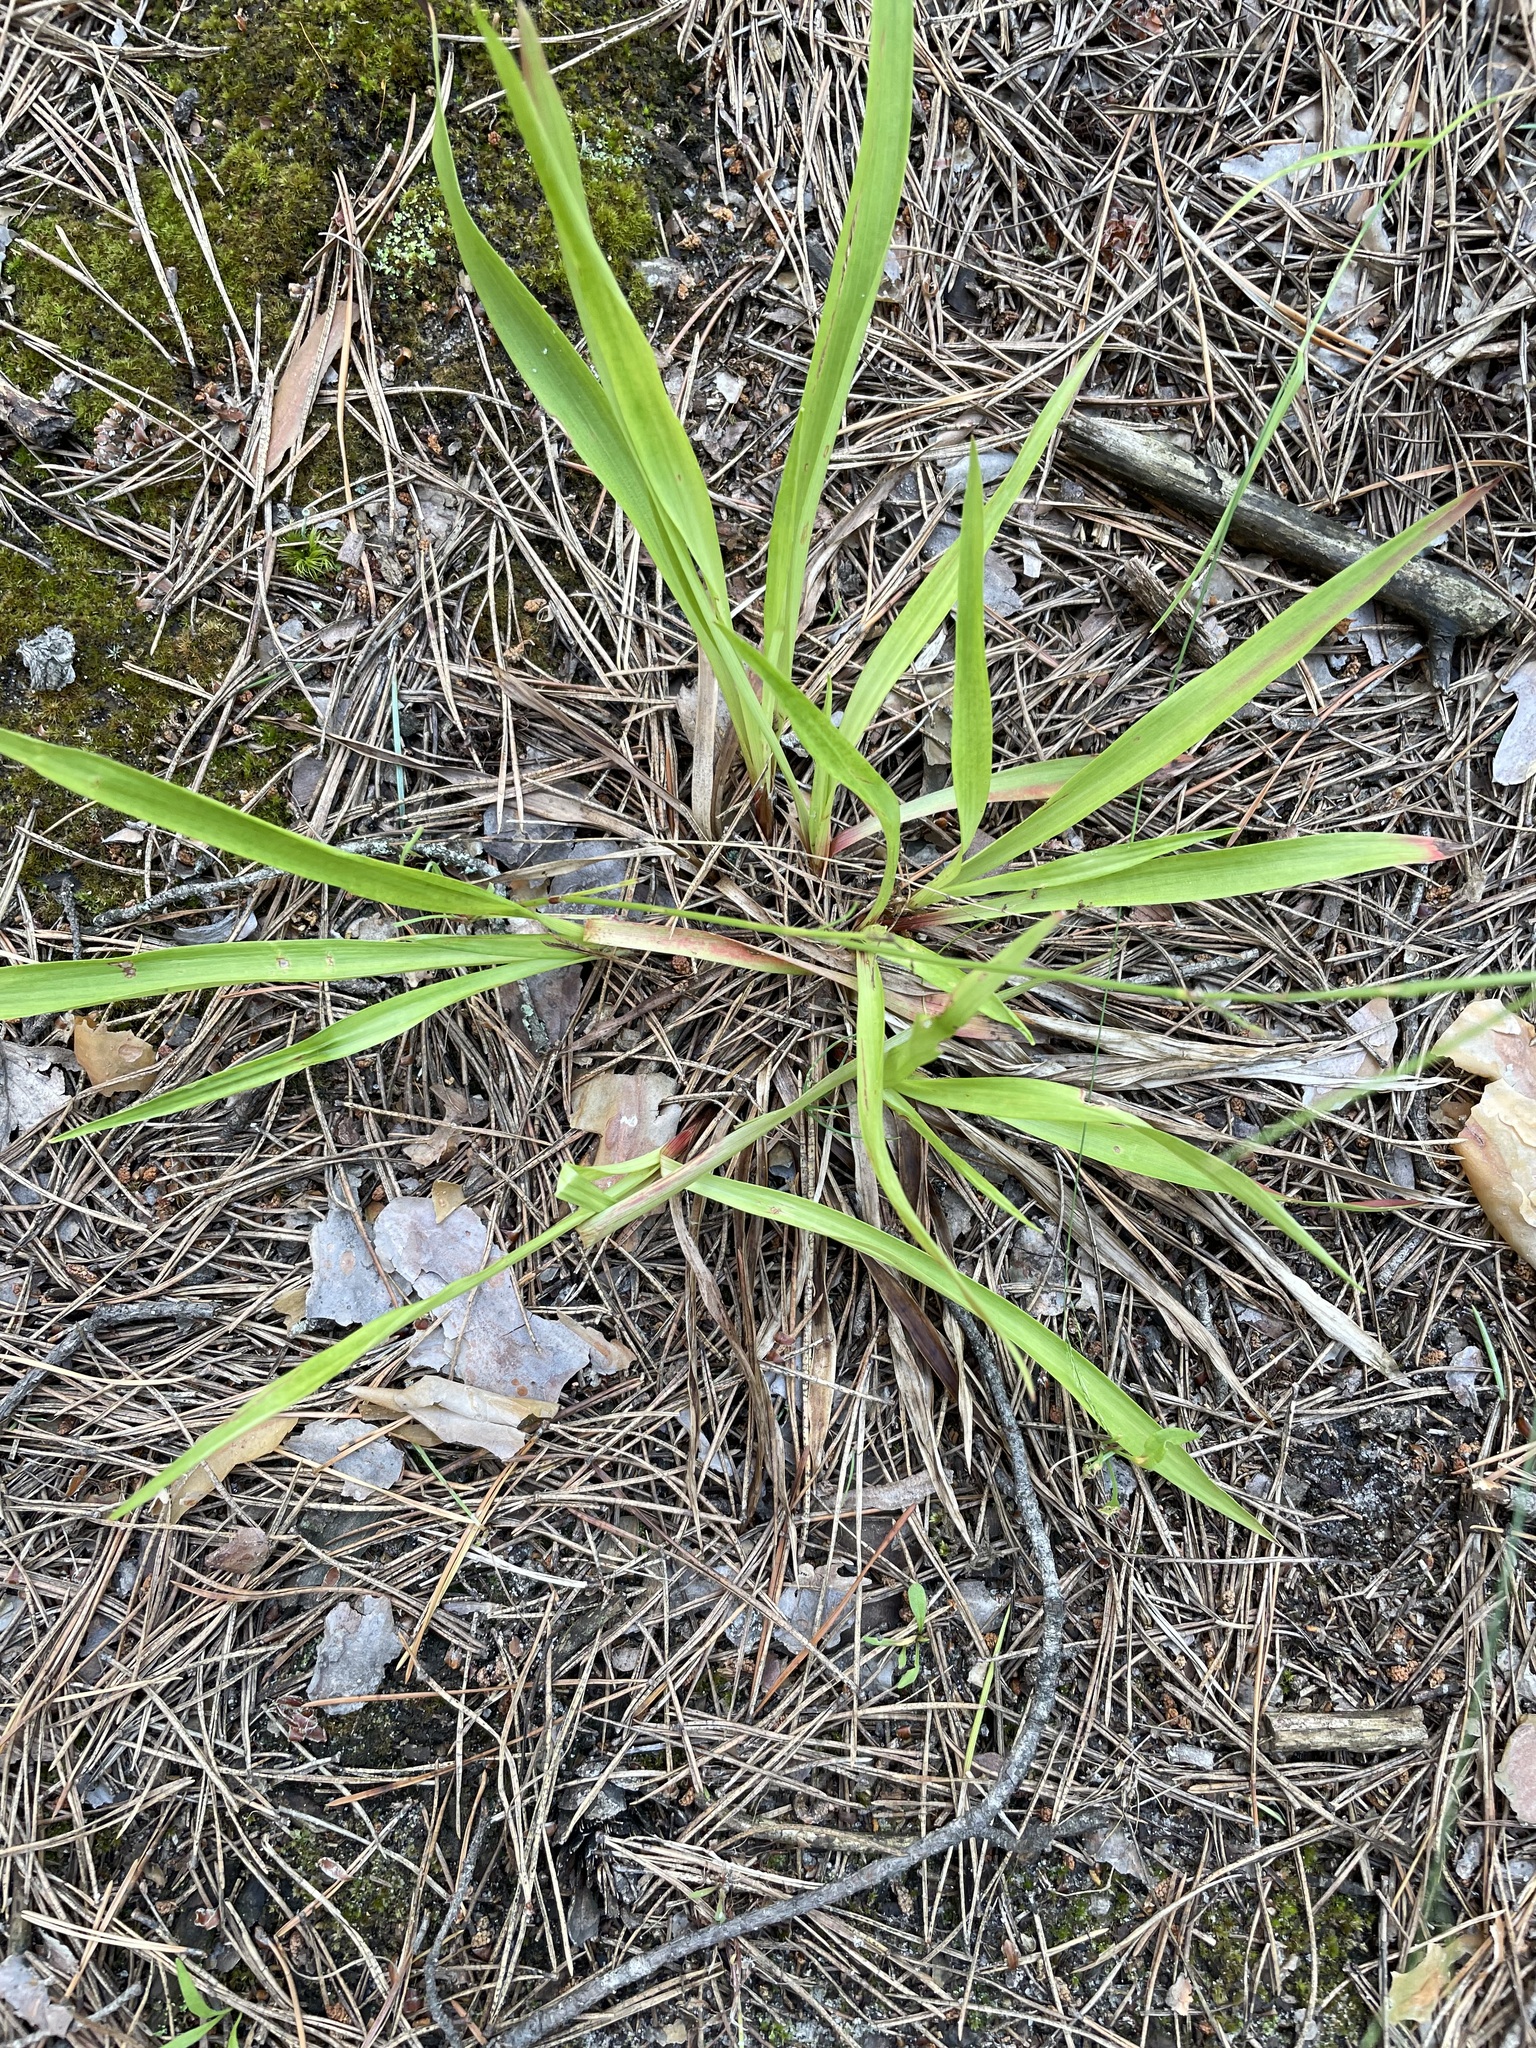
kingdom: Plantae
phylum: Tracheophyta
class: Liliopsida
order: Poales
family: Juncaceae
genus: Luzula
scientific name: Luzula pilosa
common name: Hairy wood-rush
